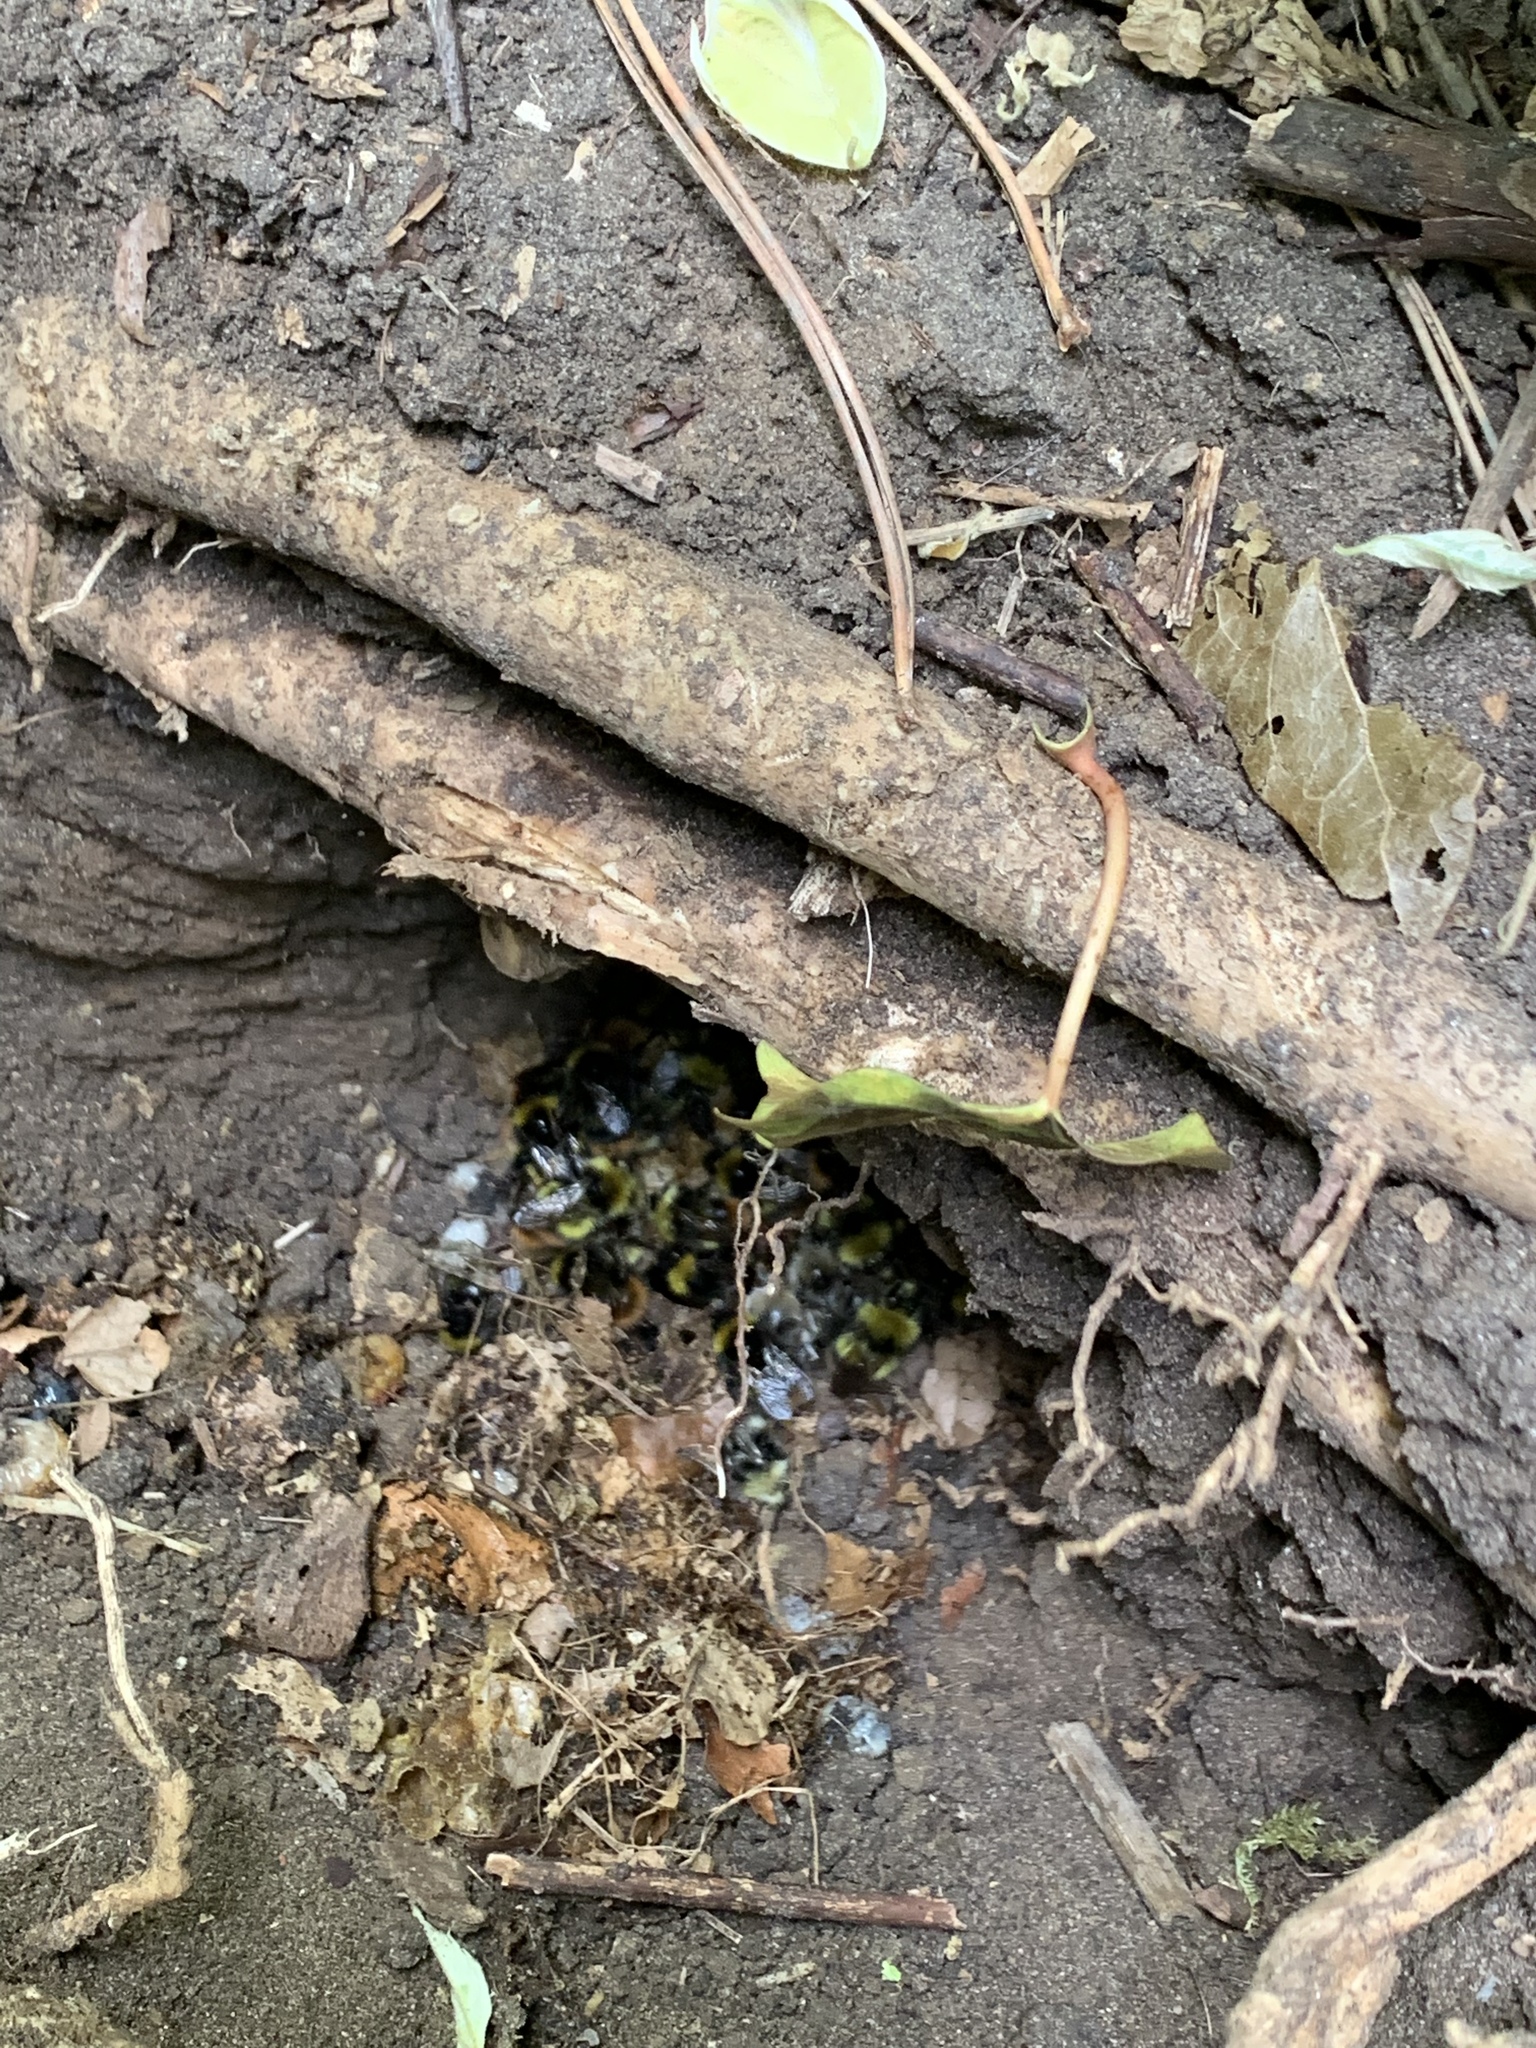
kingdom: Animalia
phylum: Arthropoda
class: Insecta
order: Hymenoptera
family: Apidae
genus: Bombus
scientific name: Bombus pratorum
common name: Early humble-bee
